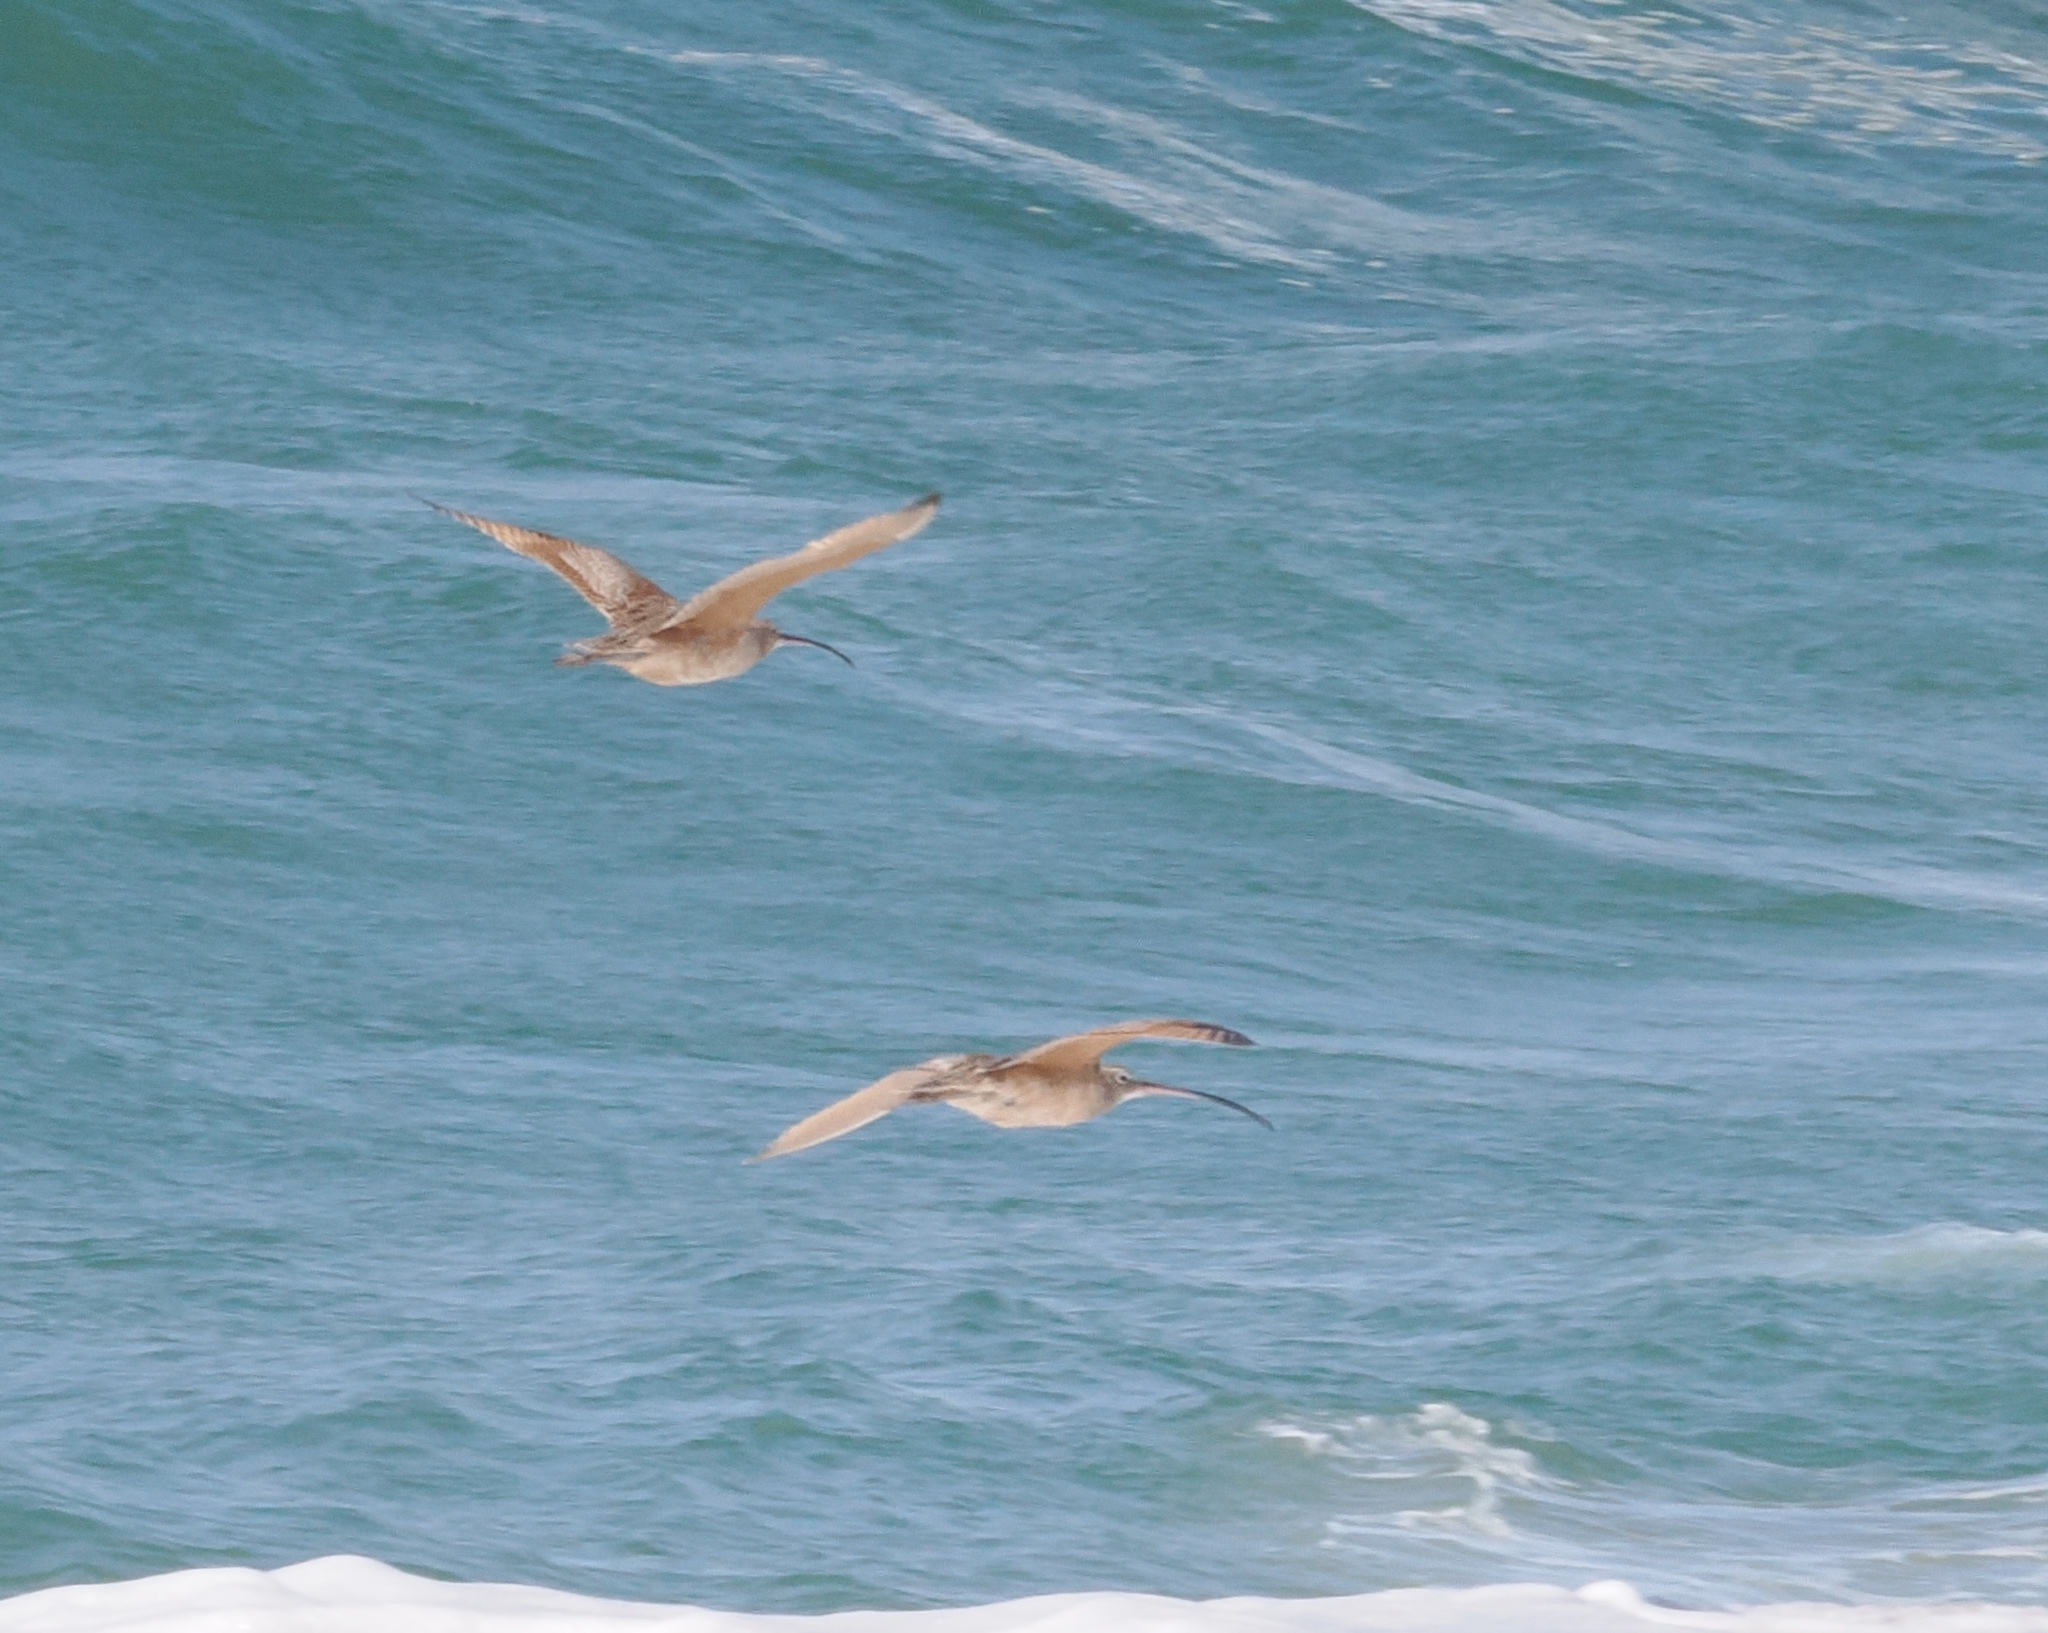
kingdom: Animalia
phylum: Chordata
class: Aves
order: Charadriiformes
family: Scolopacidae
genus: Numenius
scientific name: Numenius americanus
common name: Long-billed curlew
